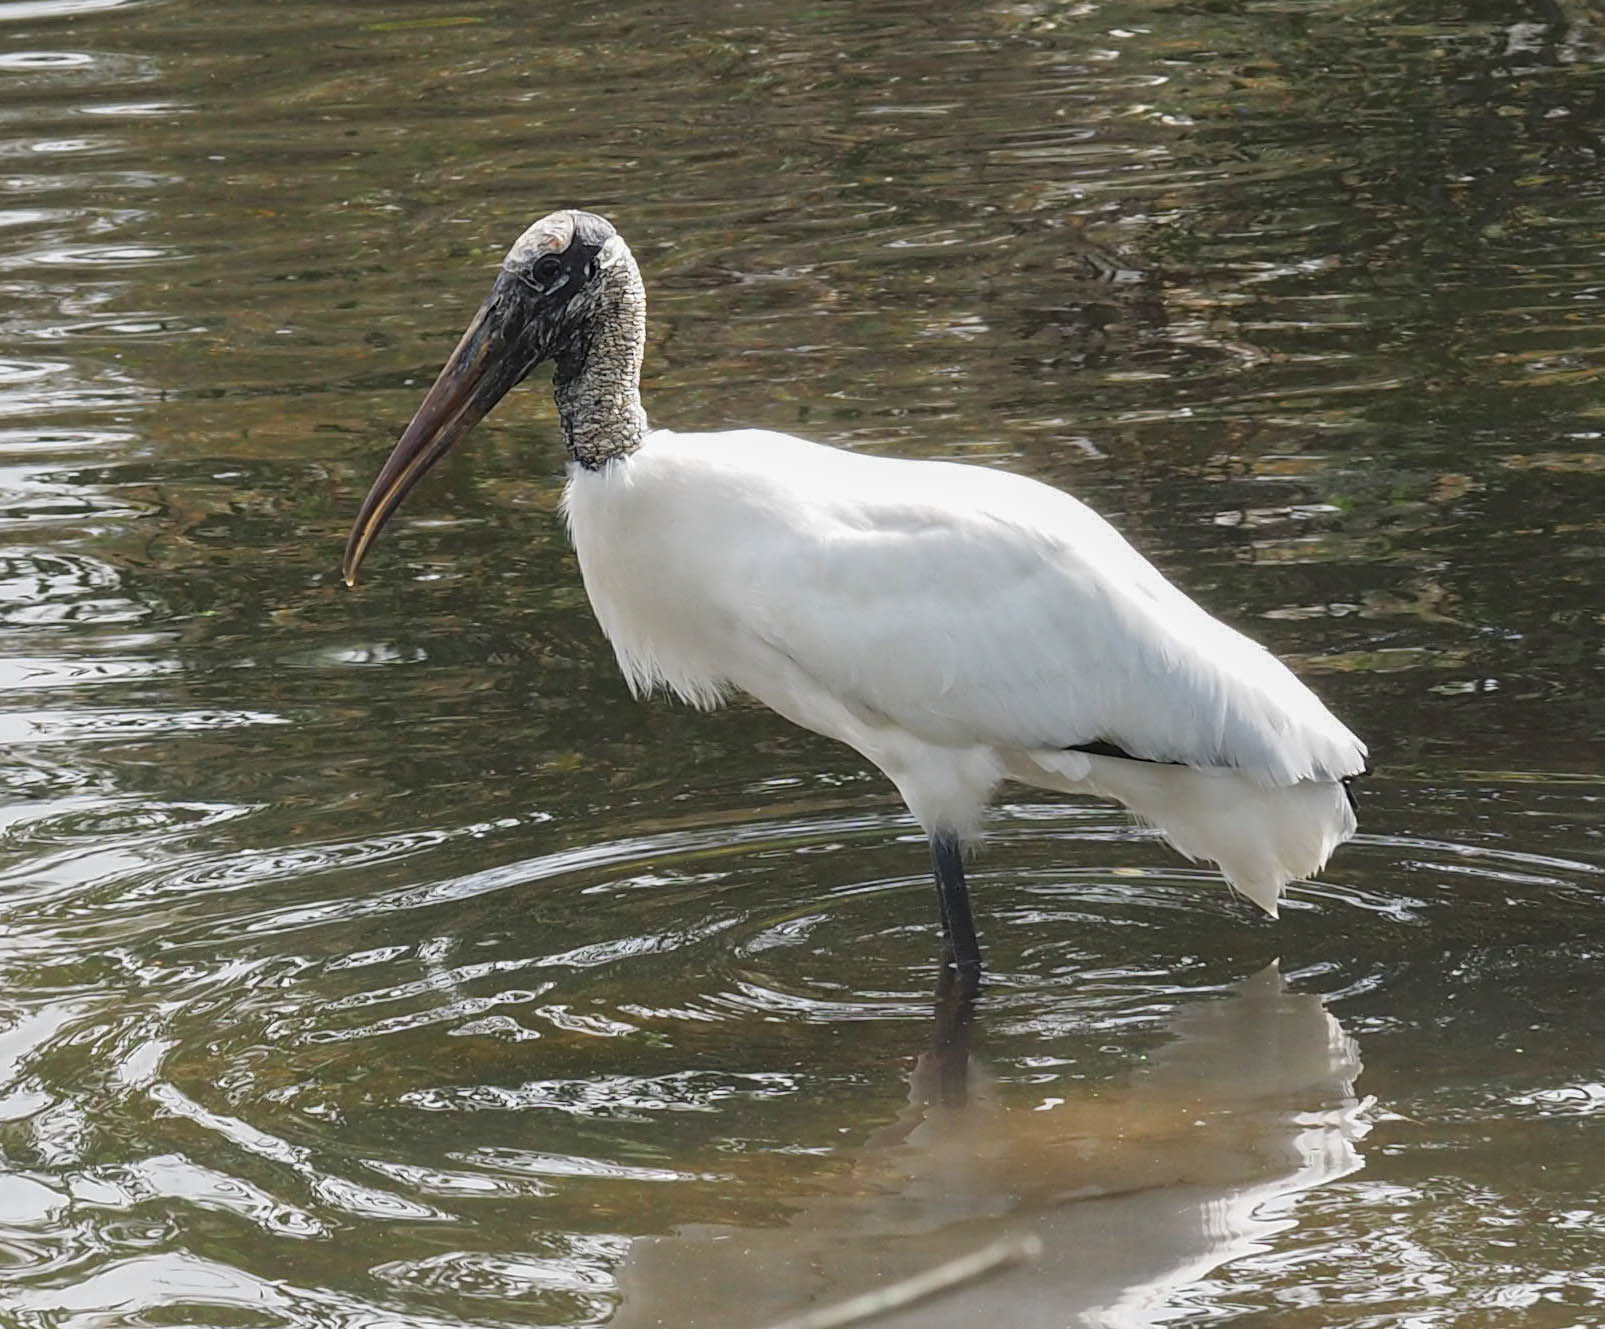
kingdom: Animalia
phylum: Chordata
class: Aves
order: Ciconiiformes
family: Ciconiidae
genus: Mycteria
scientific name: Mycteria americana
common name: Wood stork
